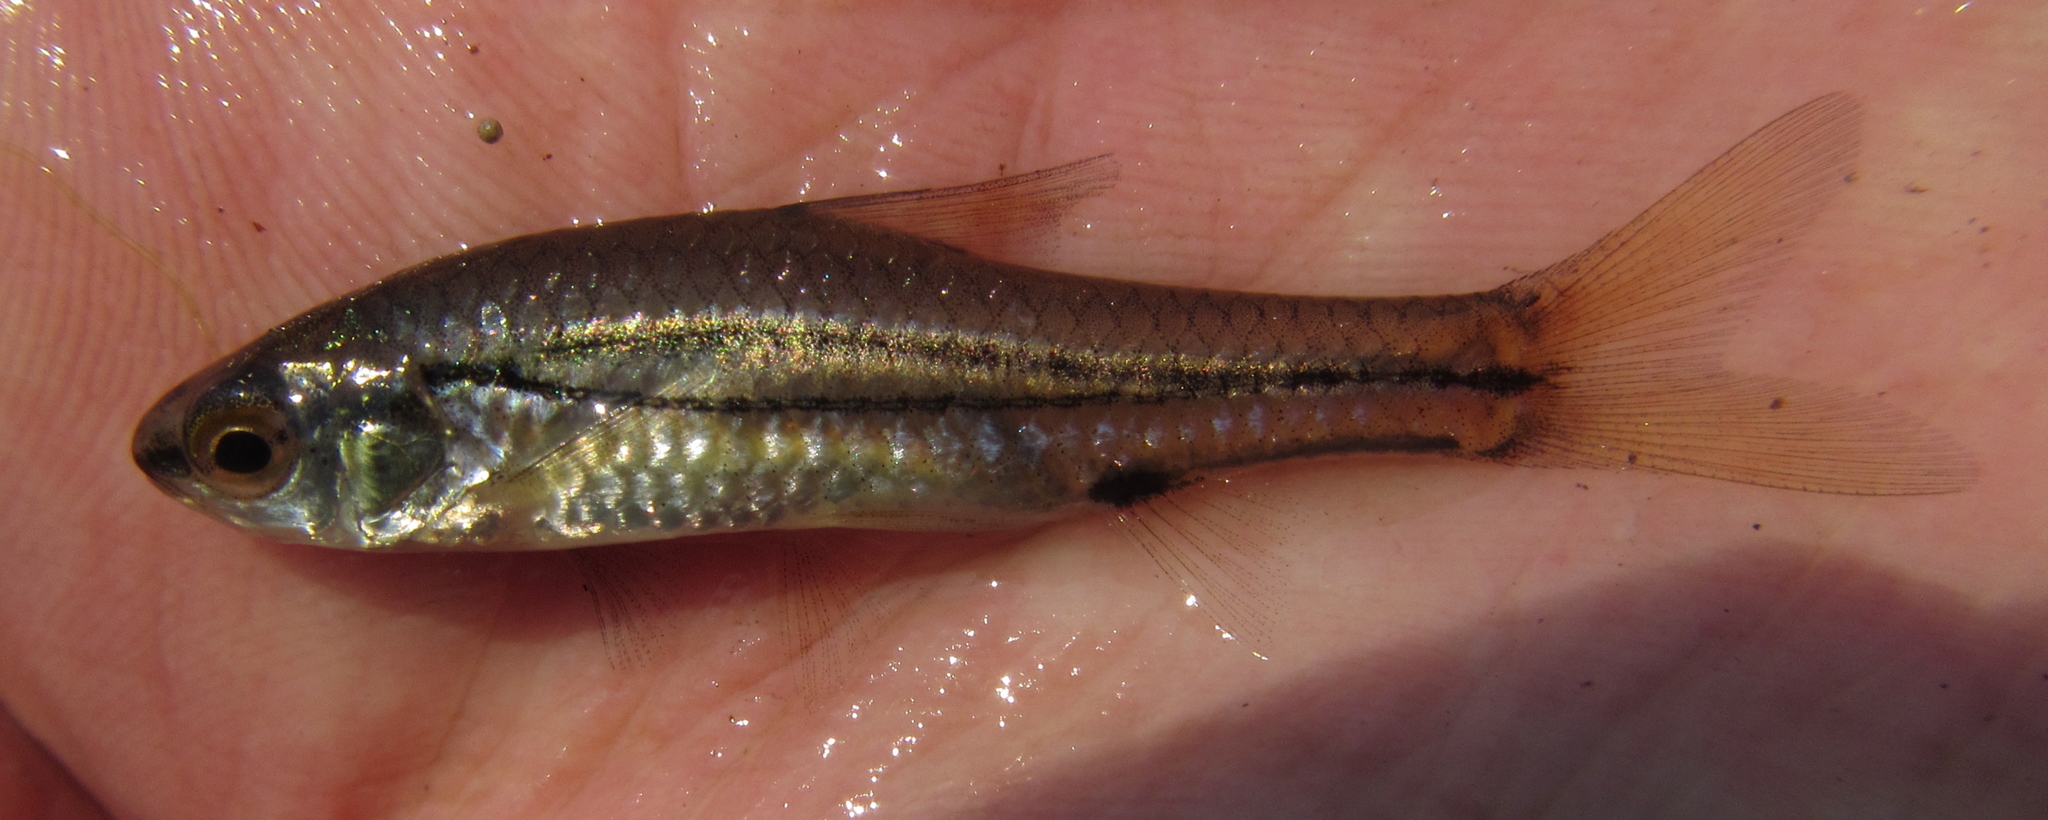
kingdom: Animalia
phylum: Chordata
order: Cypriniformes
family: Cyprinidae
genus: Enteromius
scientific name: Enteromius bifrenatus
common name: Hyphen barb
